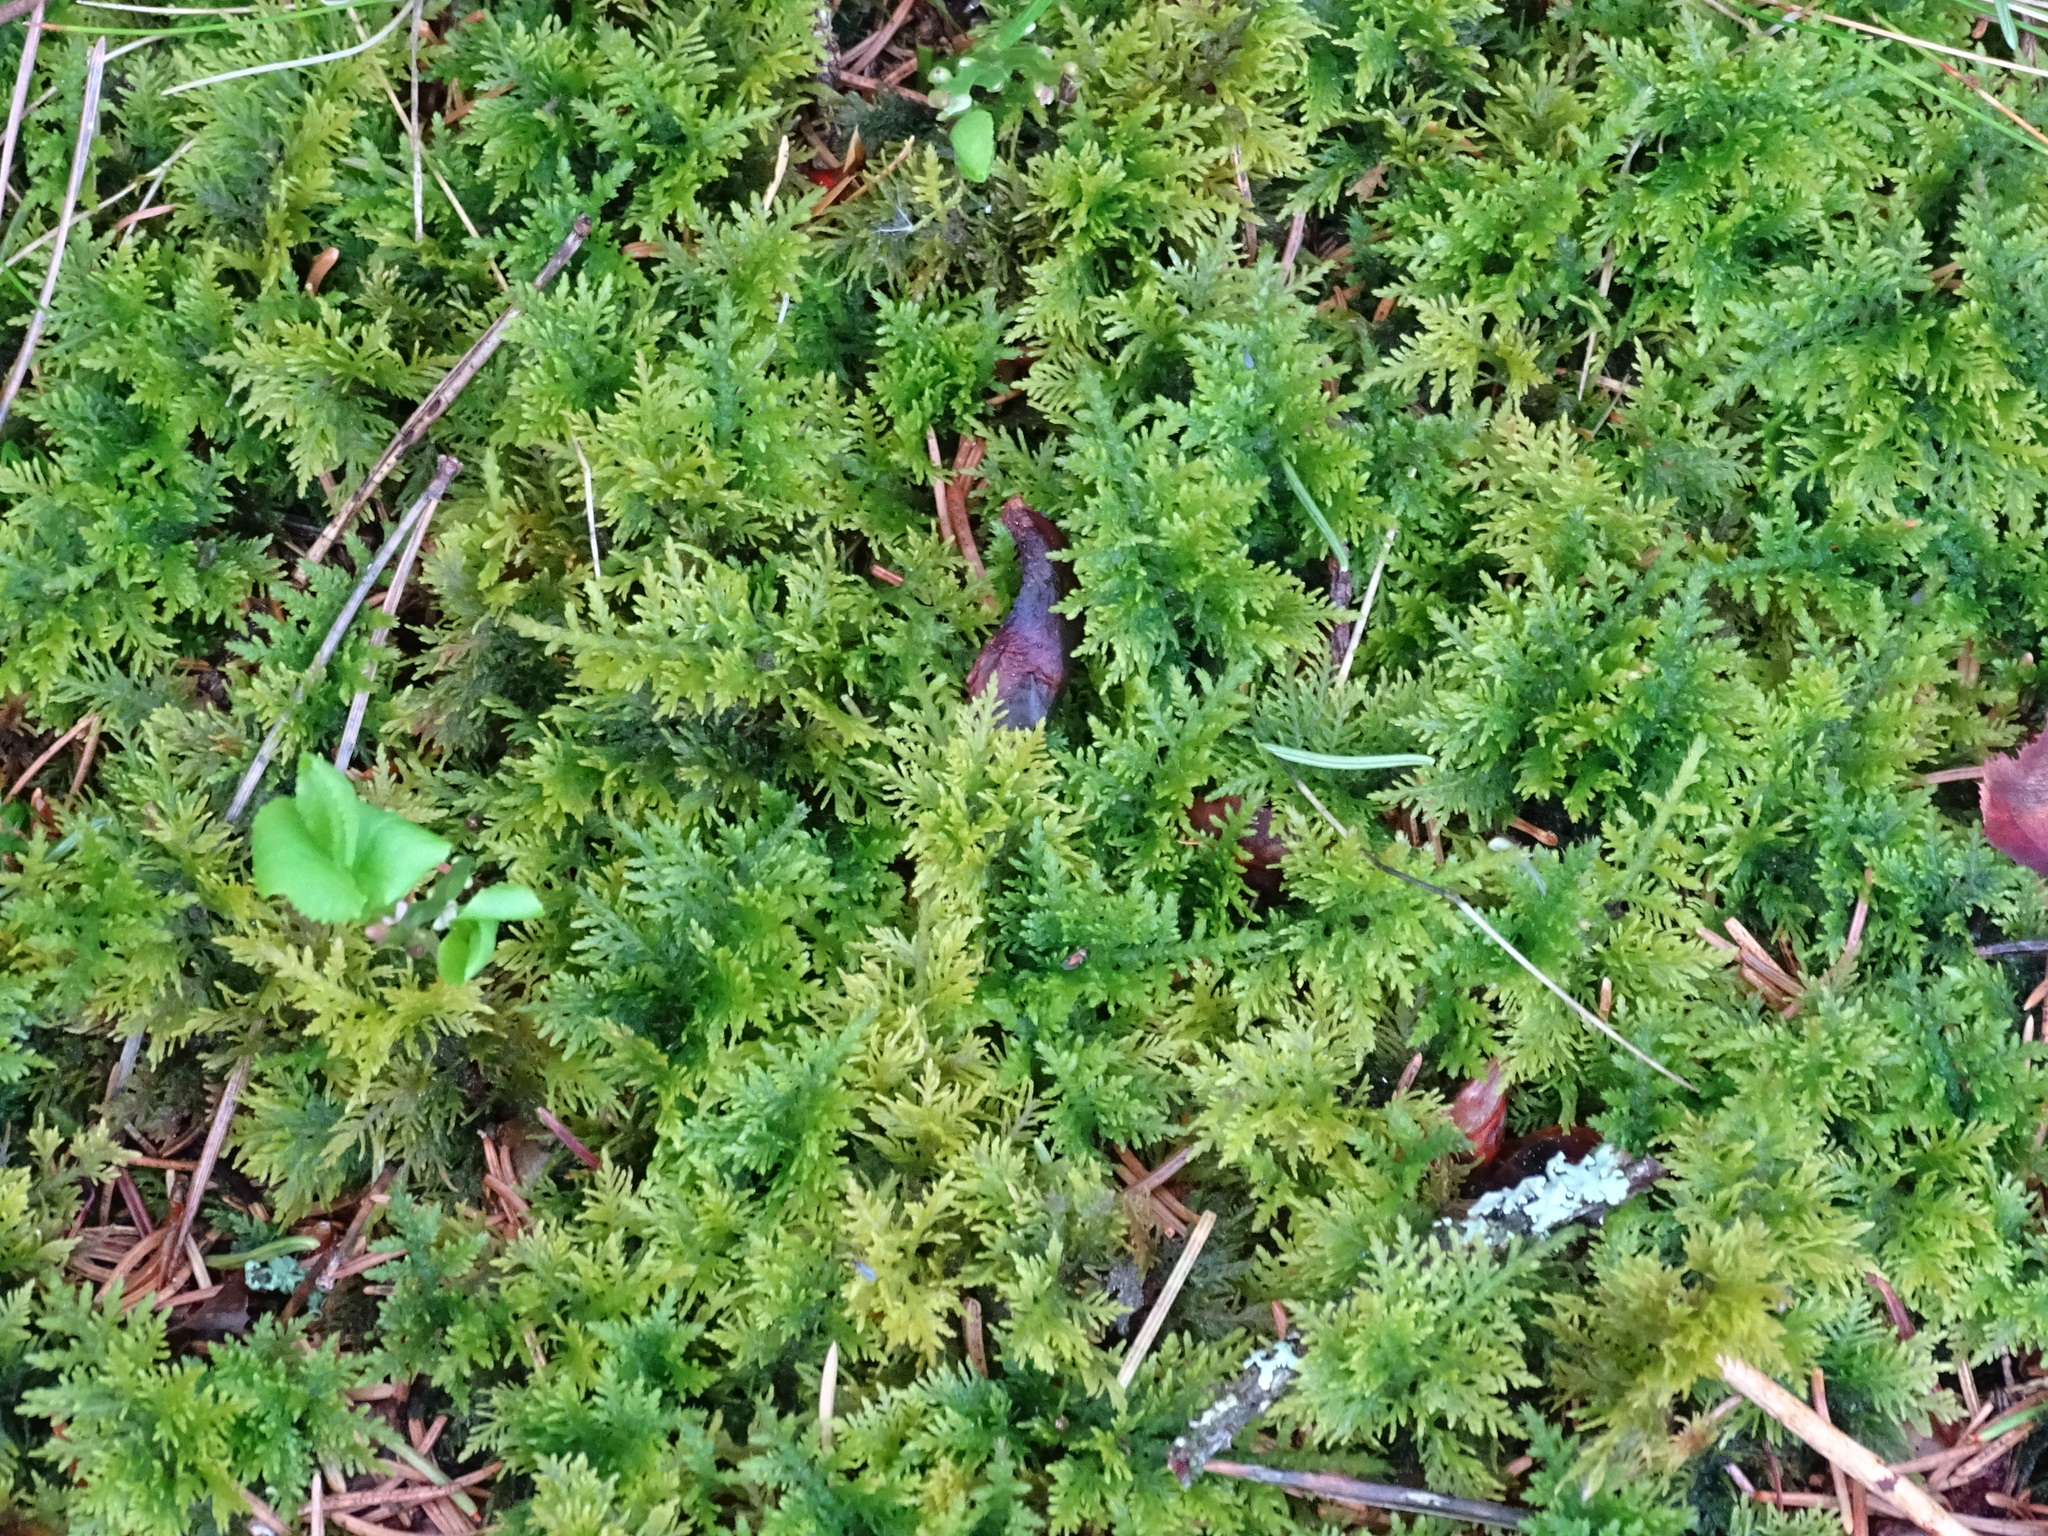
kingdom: Plantae
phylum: Bryophyta
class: Bryopsida
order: Hypnales
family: Thuidiaceae
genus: Thuidium
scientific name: Thuidium tamariscinum
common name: Common tamarisk-moss
